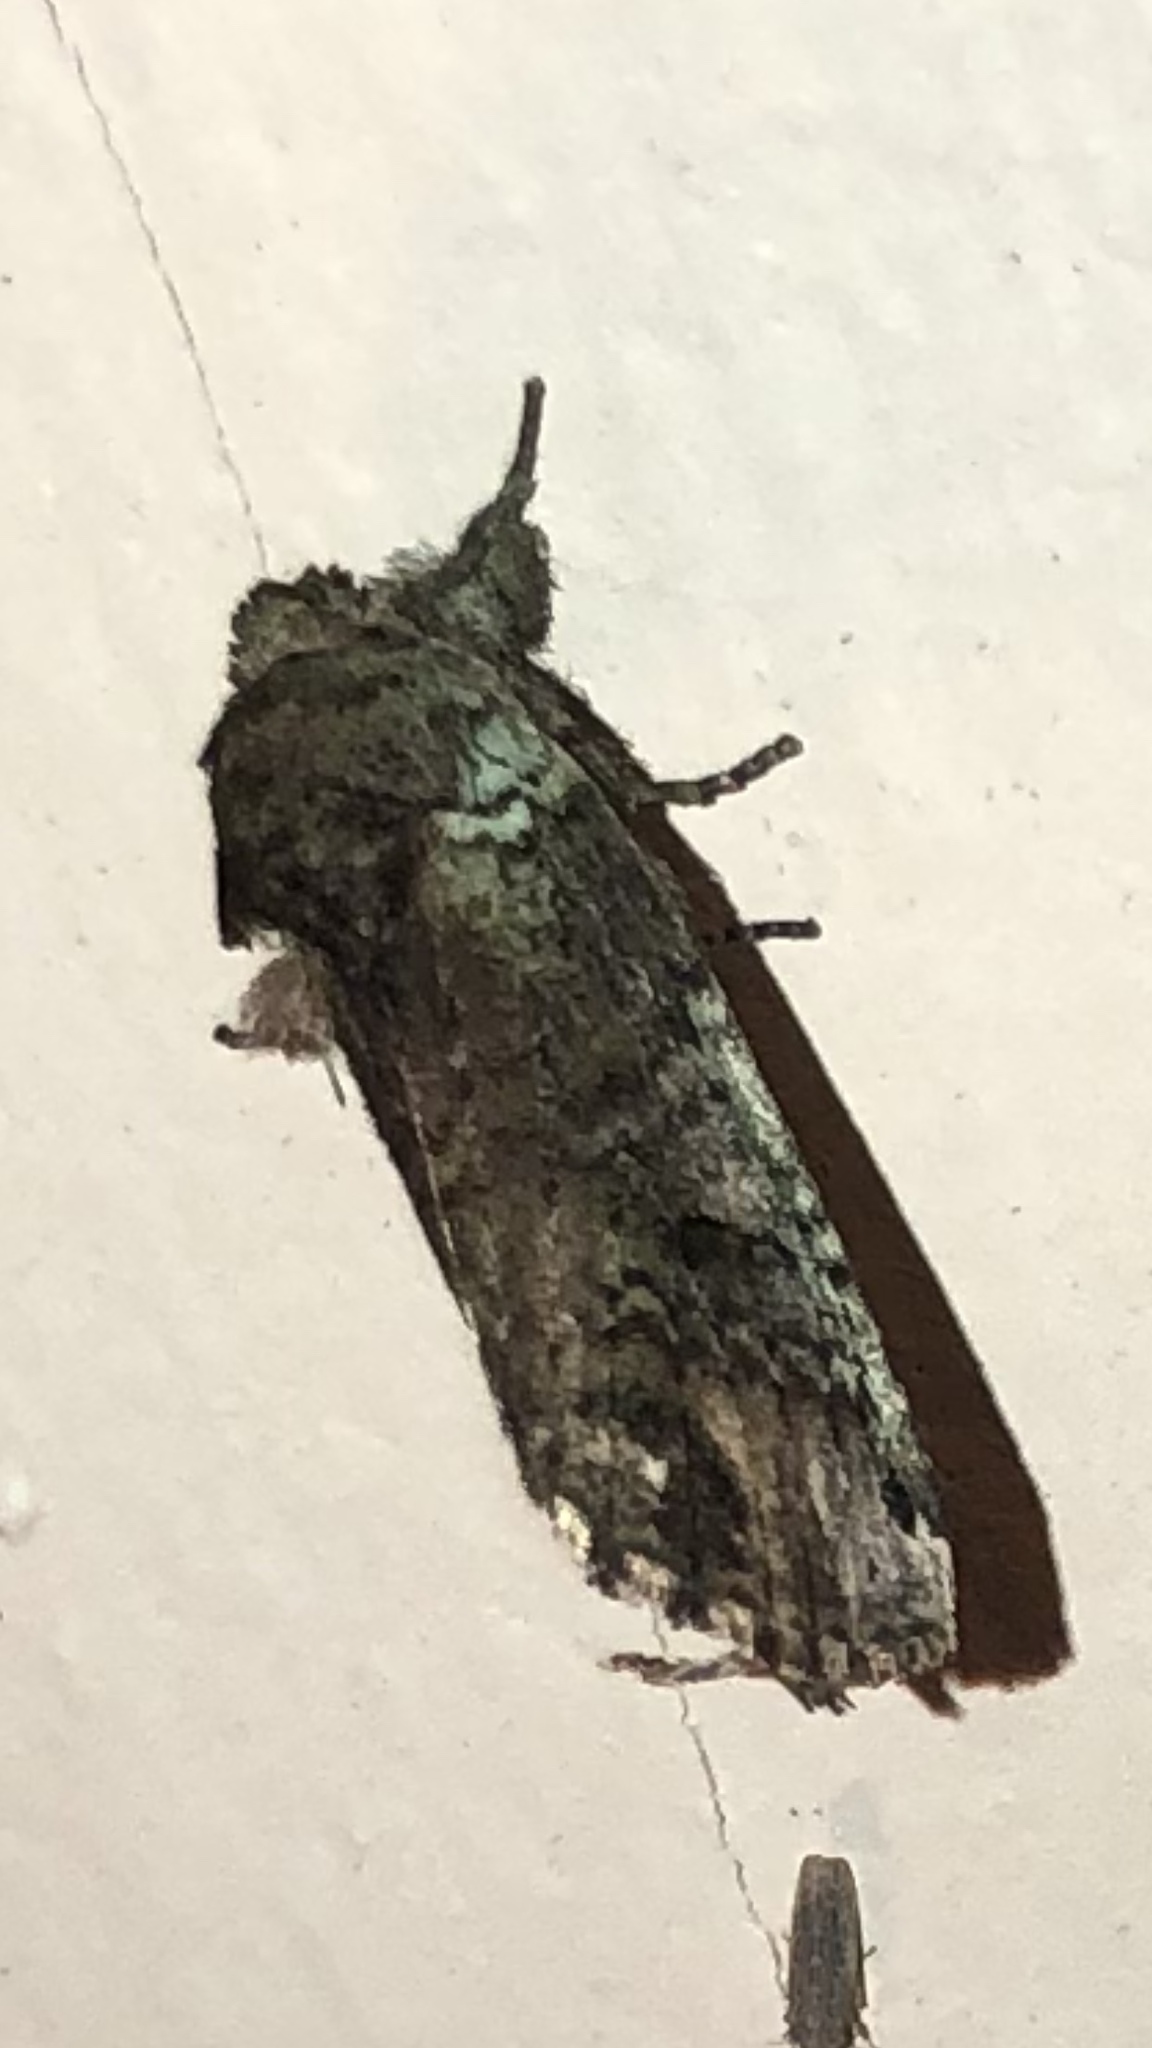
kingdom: Animalia
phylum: Arthropoda
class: Insecta
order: Lepidoptera
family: Notodontidae
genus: Schizura
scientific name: Schizura
